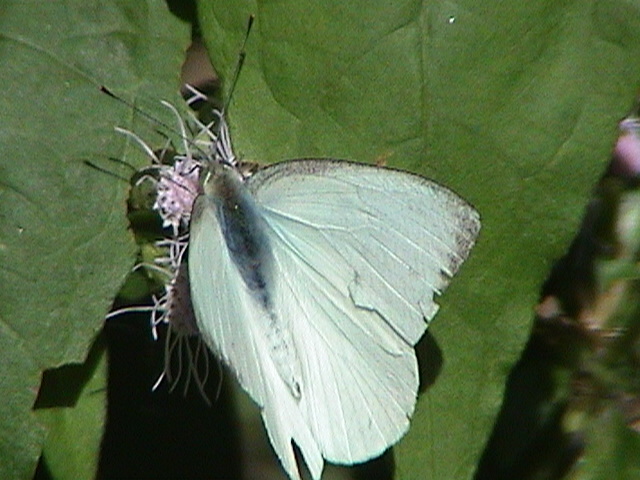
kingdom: Animalia
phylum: Arthropoda
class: Insecta
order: Lepidoptera
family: Pieridae
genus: Appias
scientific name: Appias albina
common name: Common albatross
